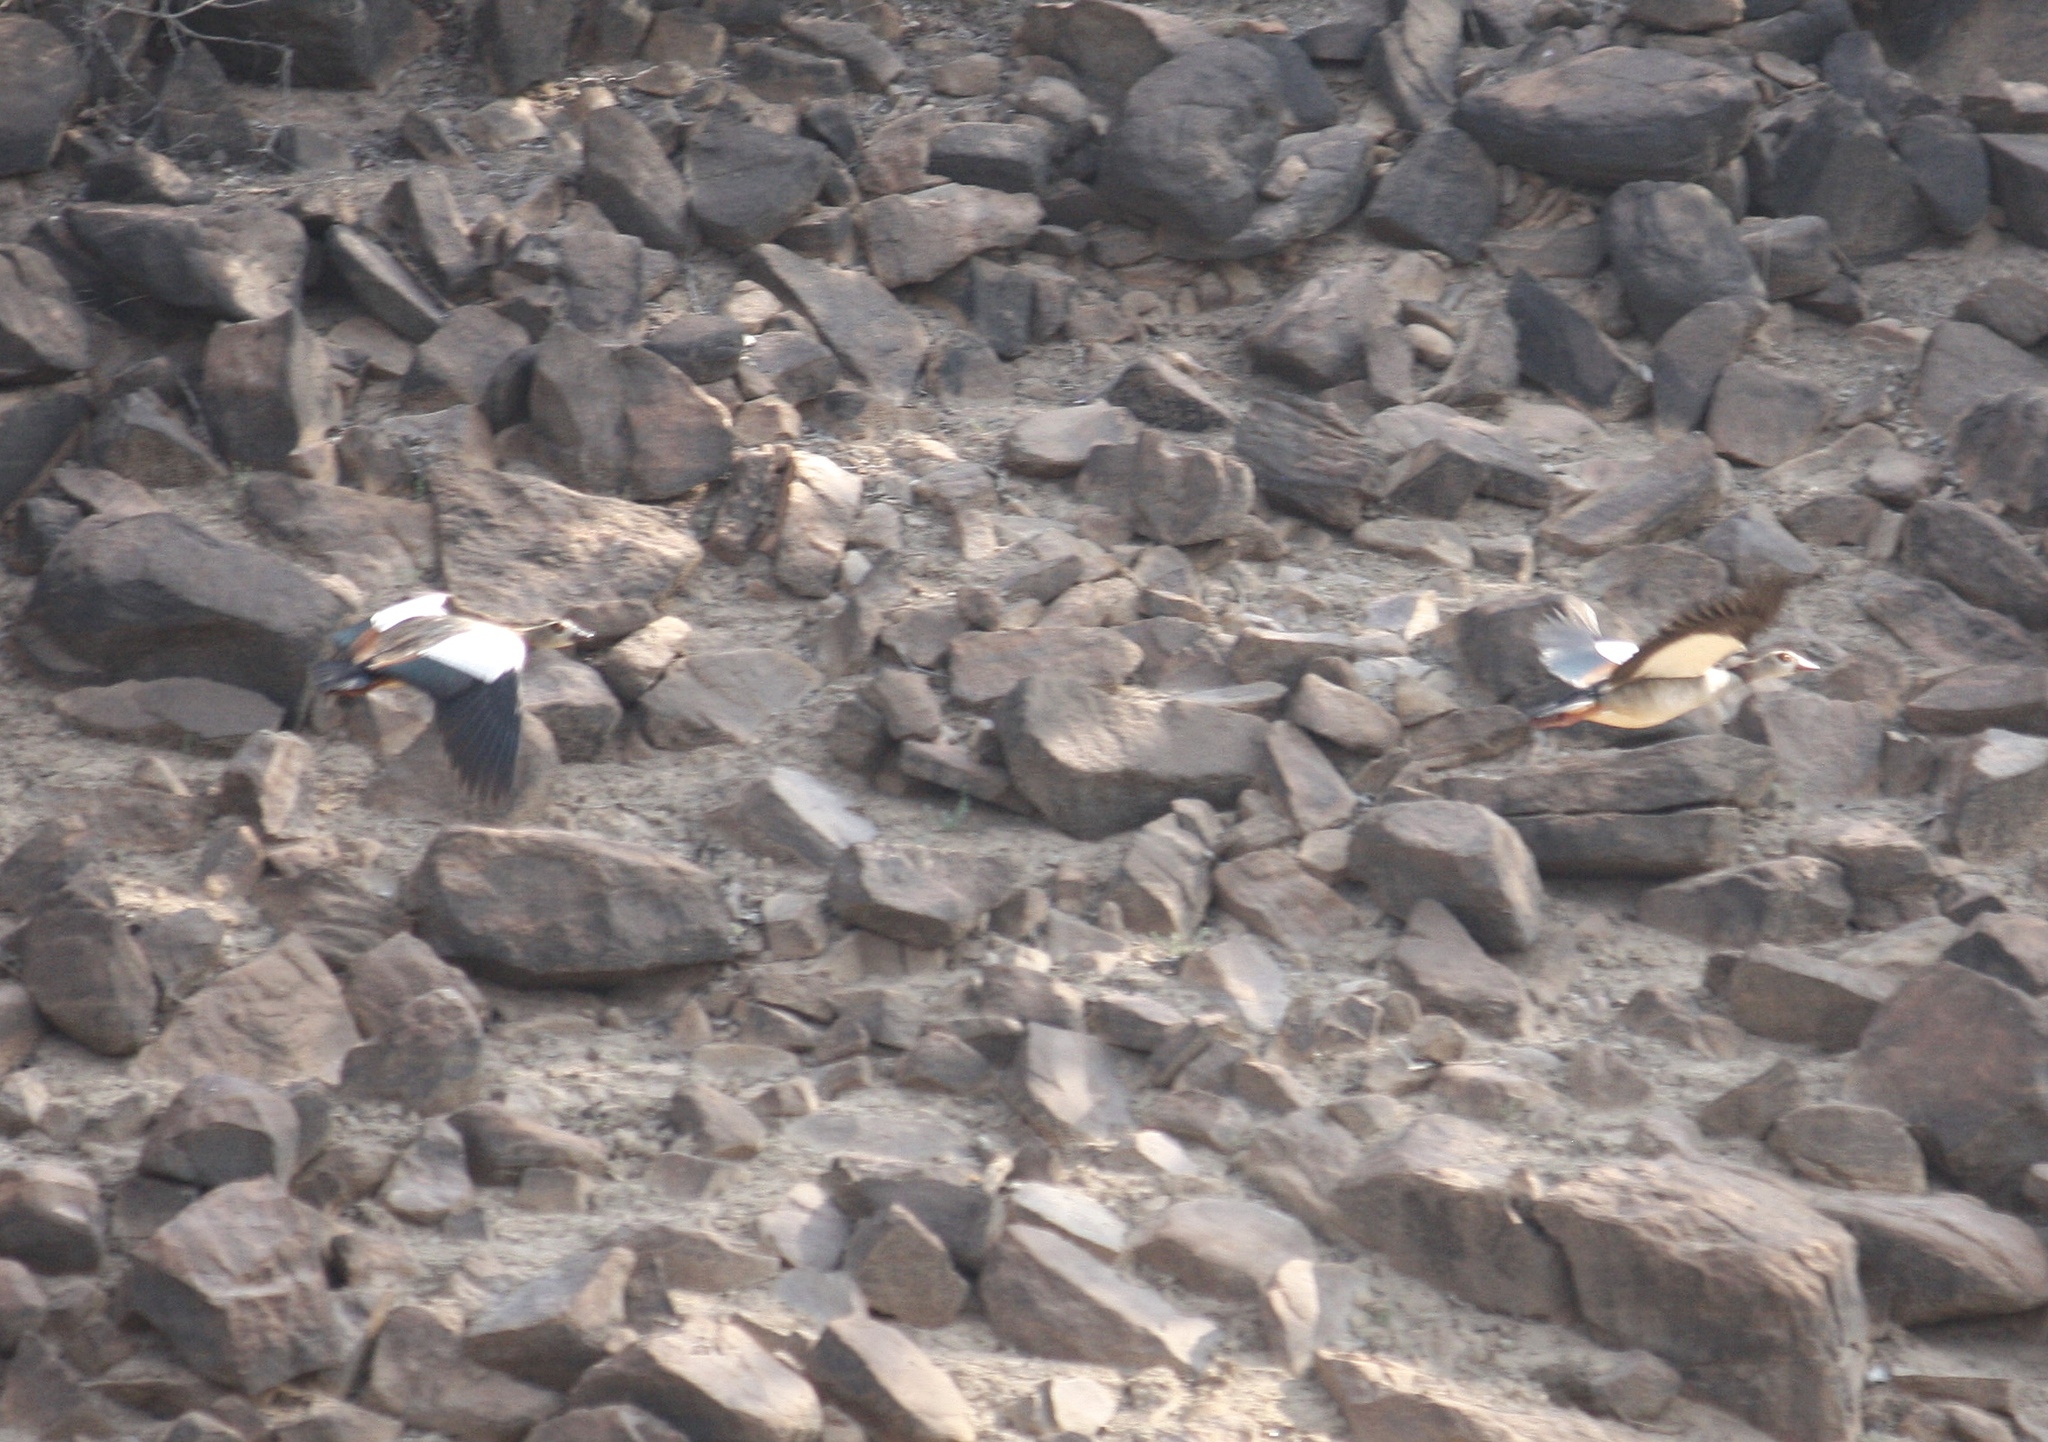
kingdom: Animalia
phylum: Chordata
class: Aves
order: Anseriformes
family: Anatidae
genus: Alopochen
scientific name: Alopochen aegyptiaca
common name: Egyptian goose
